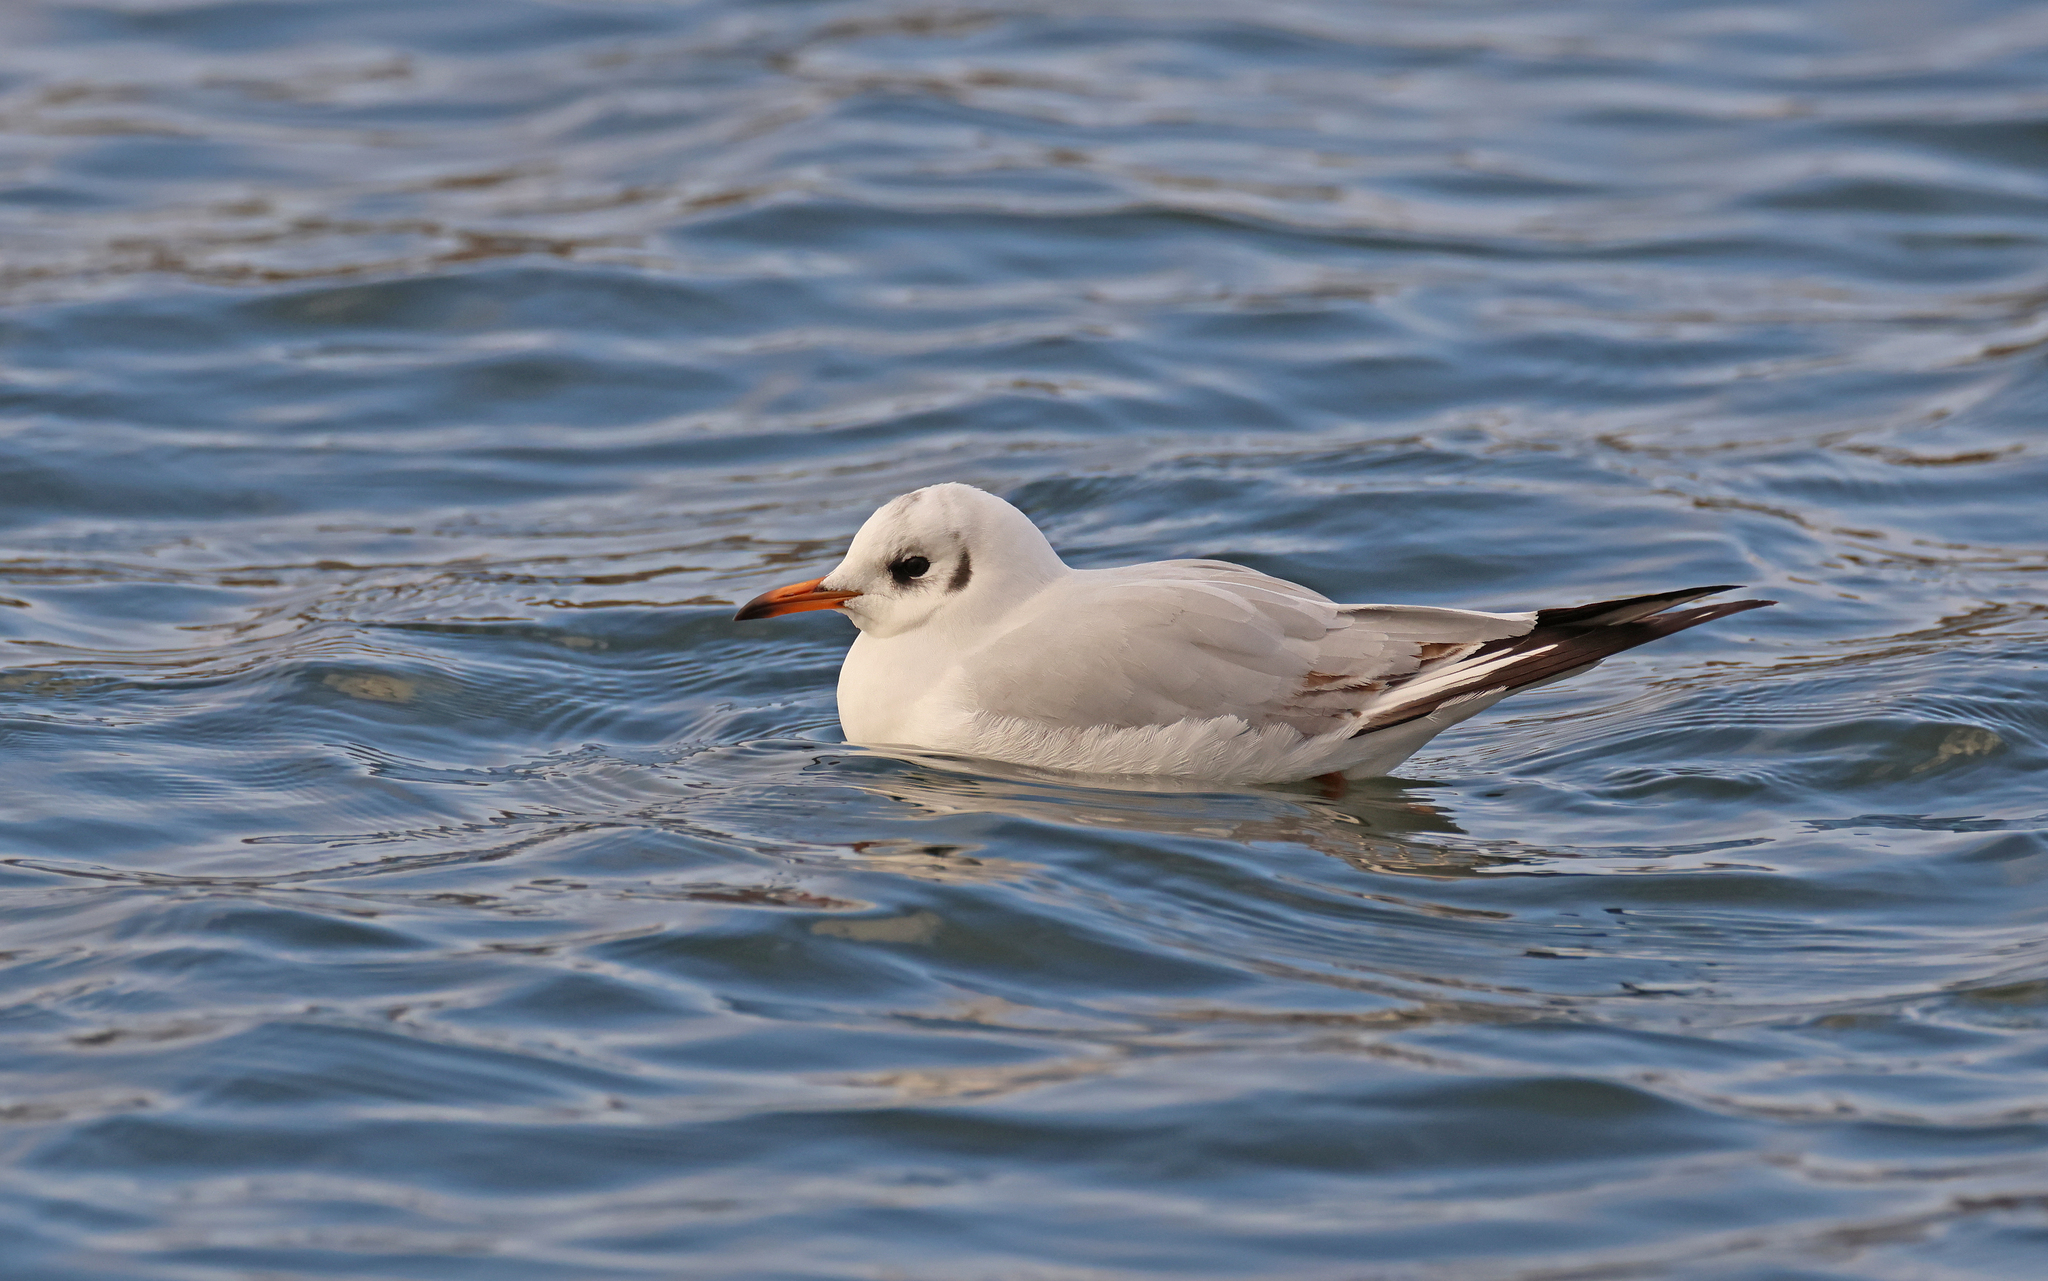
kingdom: Animalia
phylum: Chordata
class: Aves
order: Charadriiformes
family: Laridae
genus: Chroicocephalus
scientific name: Chroicocephalus ridibundus
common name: Black-headed gull
